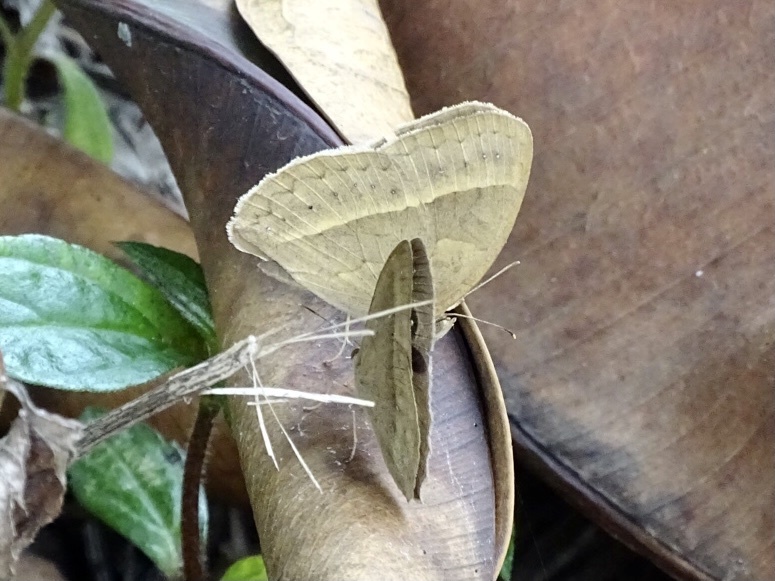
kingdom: Animalia
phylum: Arthropoda
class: Insecta
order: Lepidoptera
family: Nymphalidae
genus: Mycalesis
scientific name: Mycalesis horsfieldii
